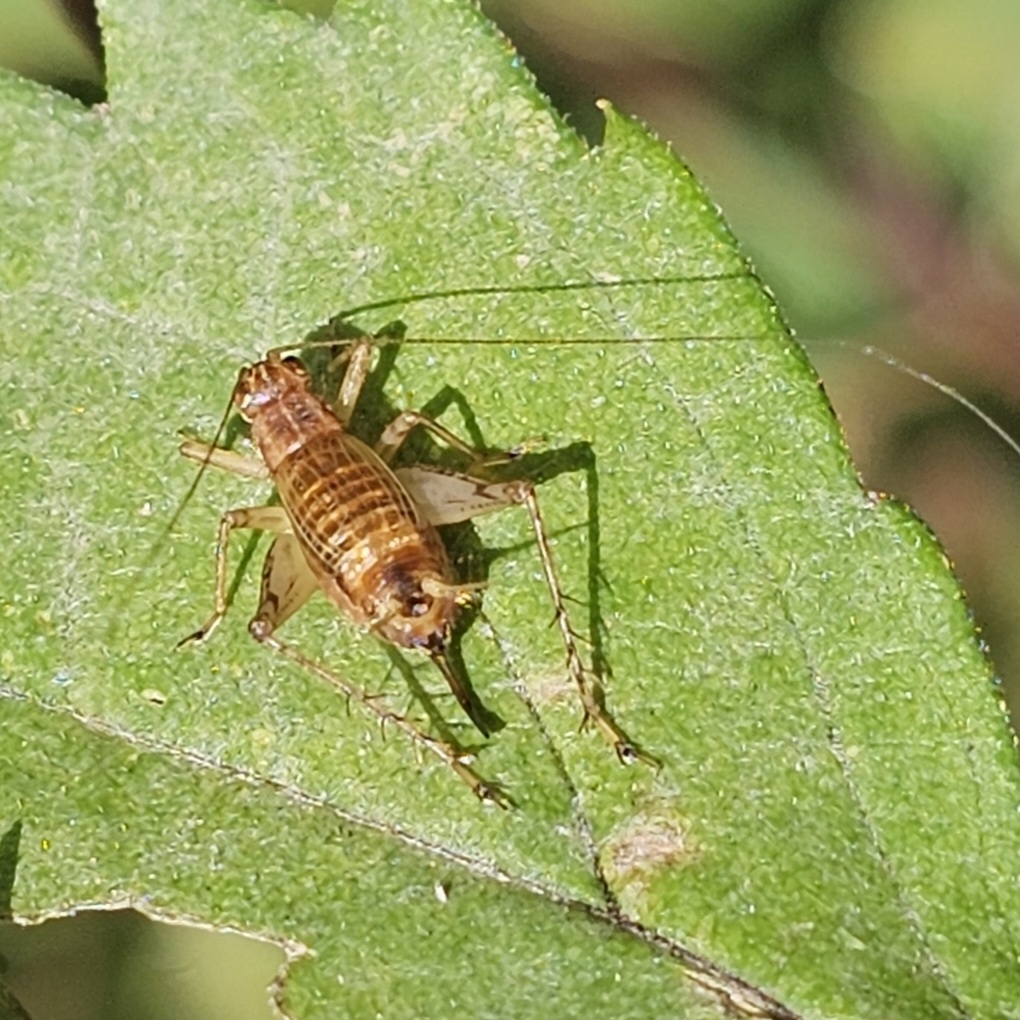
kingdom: Animalia
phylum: Arthropoda
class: Insecta
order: Orthoptera
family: Trigonidiidae
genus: Anaxipha
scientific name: Anaxipha exigua
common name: Say's bush cricket
